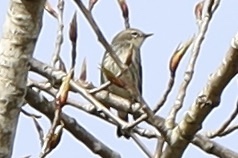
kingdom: Animalia
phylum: Chordata
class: Aves
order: Passeriformes
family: Parulidae
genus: Setophaga
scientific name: Setophaga coronata
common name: Myrtle warbler
